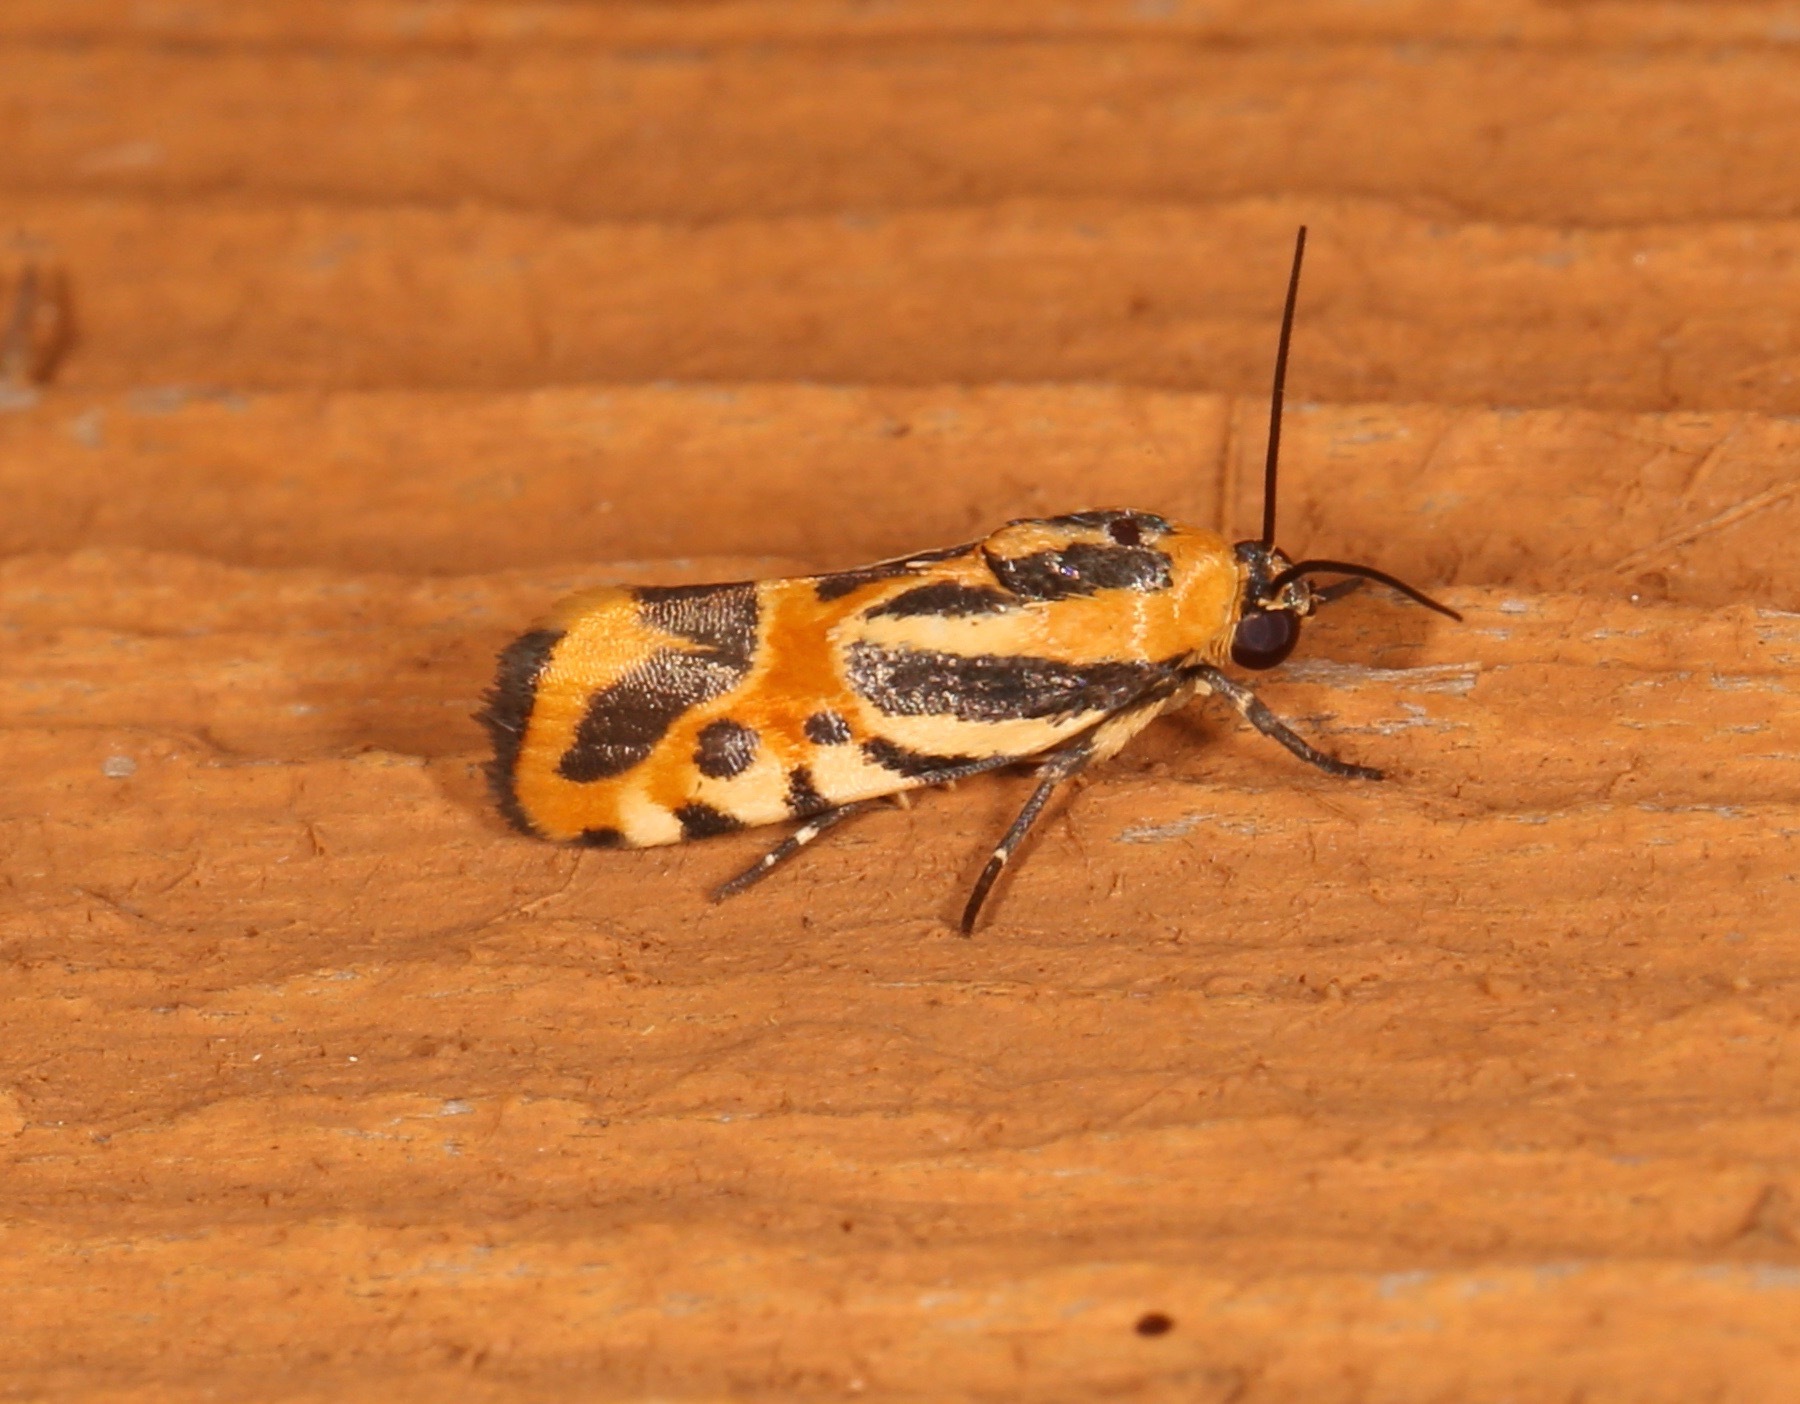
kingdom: Animalia
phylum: Arthropoda
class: Insecta
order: Lepidoptera
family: Noctuidae
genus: Acontia
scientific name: Acontia onagrus
